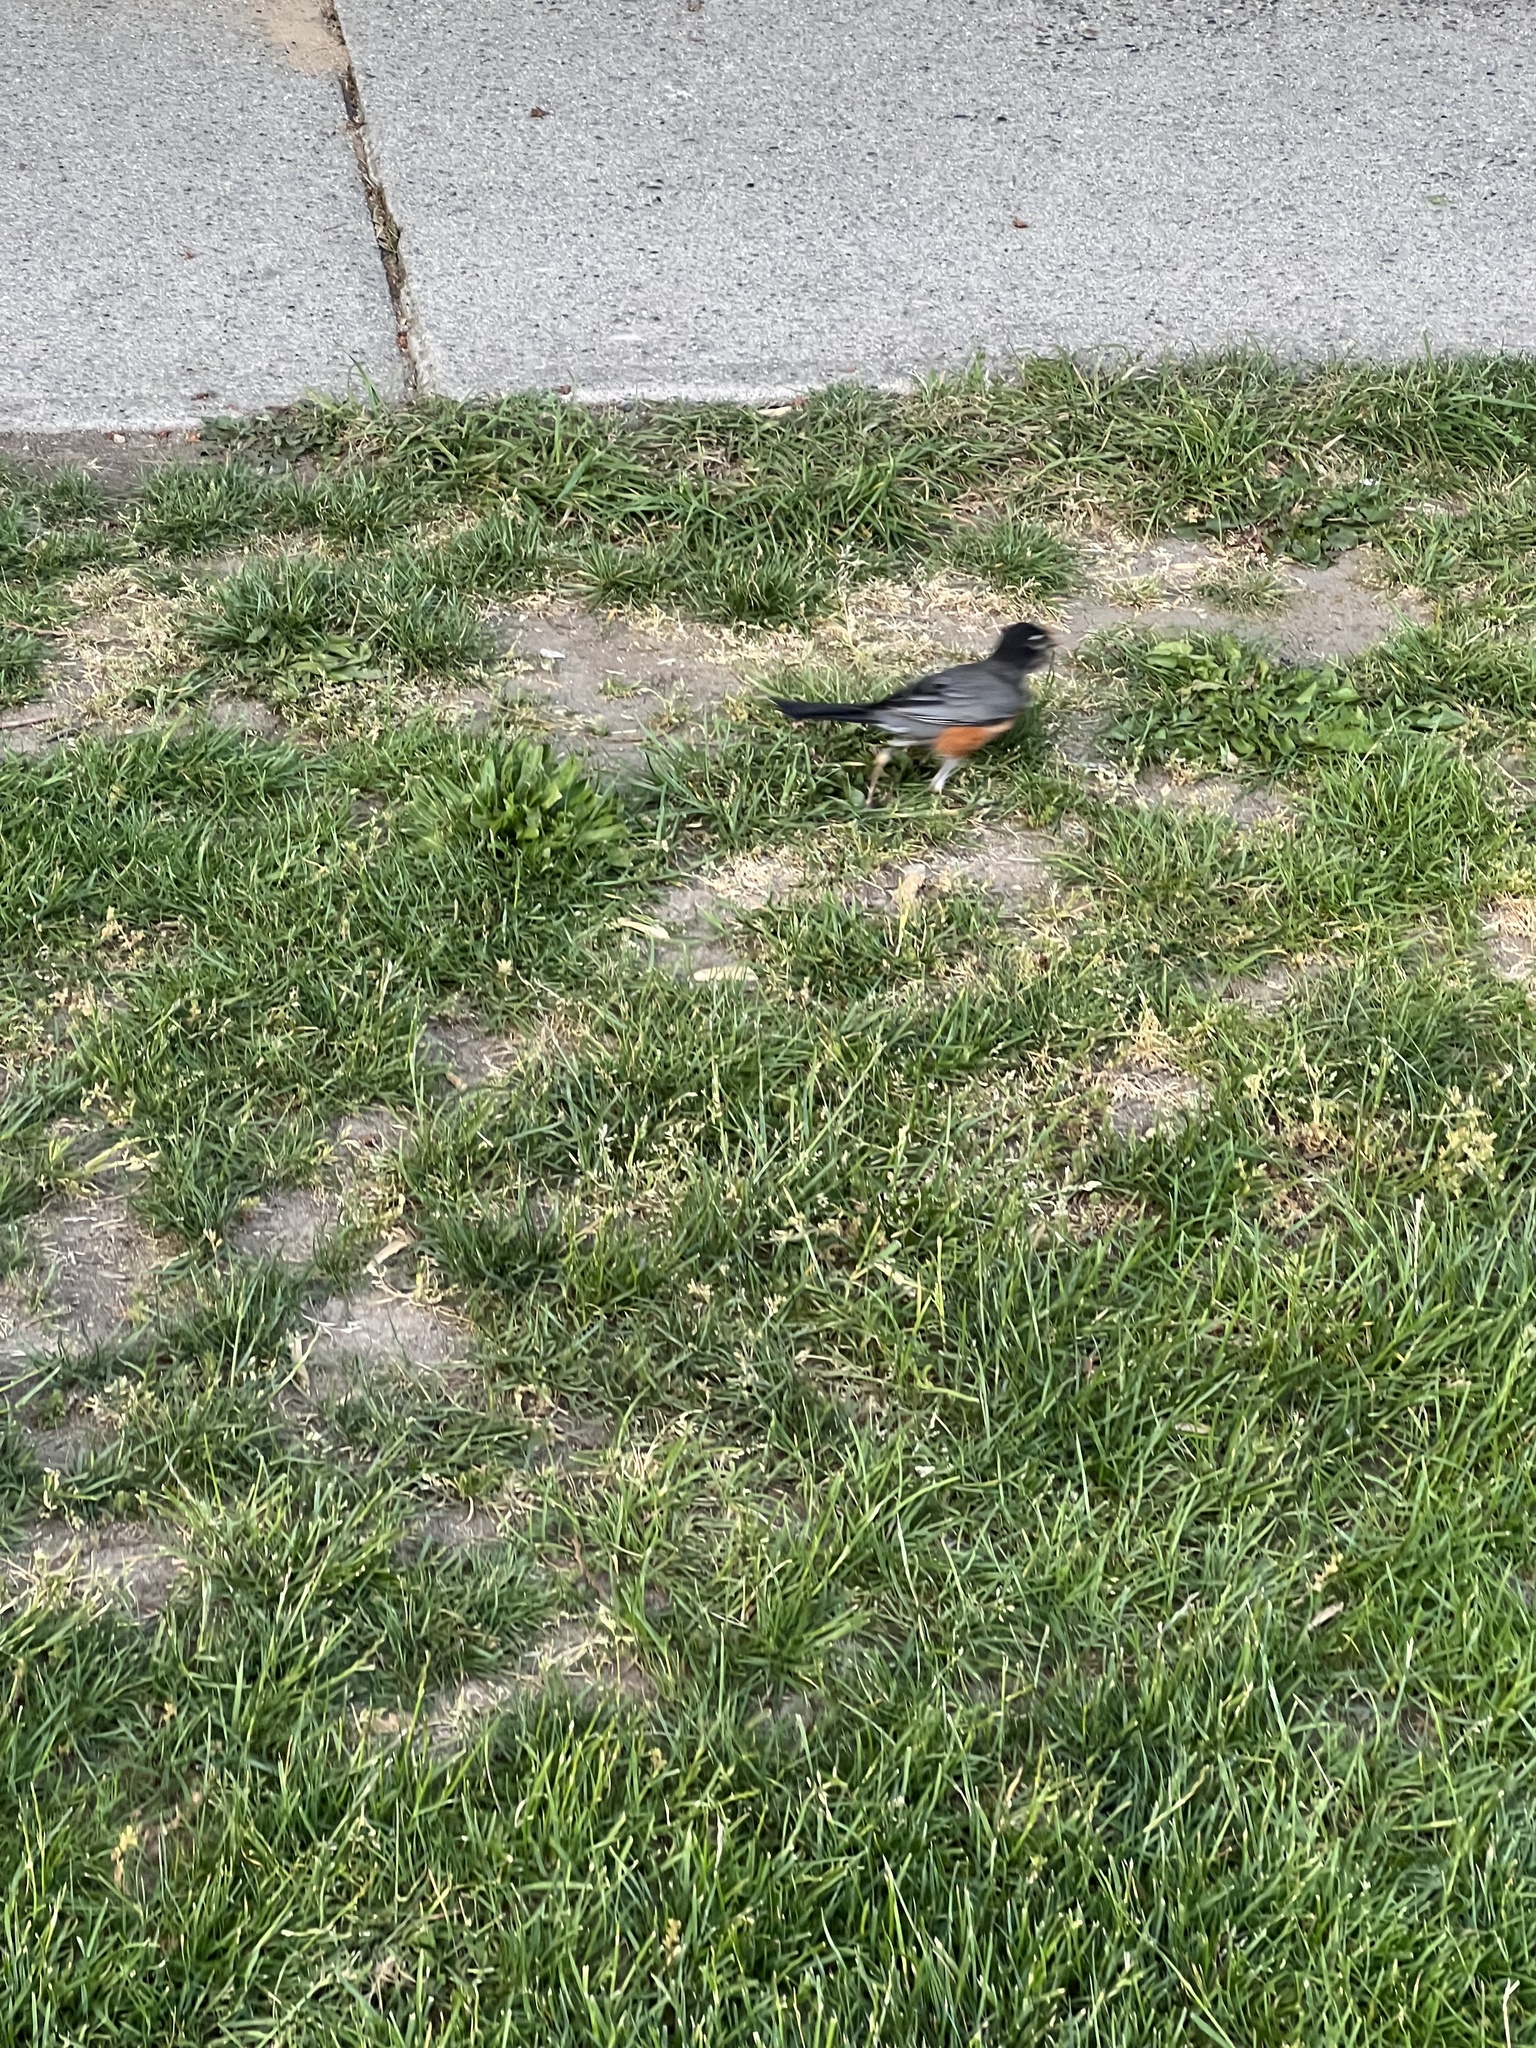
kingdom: Animalia
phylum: Chordata
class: Aves
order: Passeriformes
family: Turdidae
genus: Turdus
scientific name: Turdus migratorius
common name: American robin
